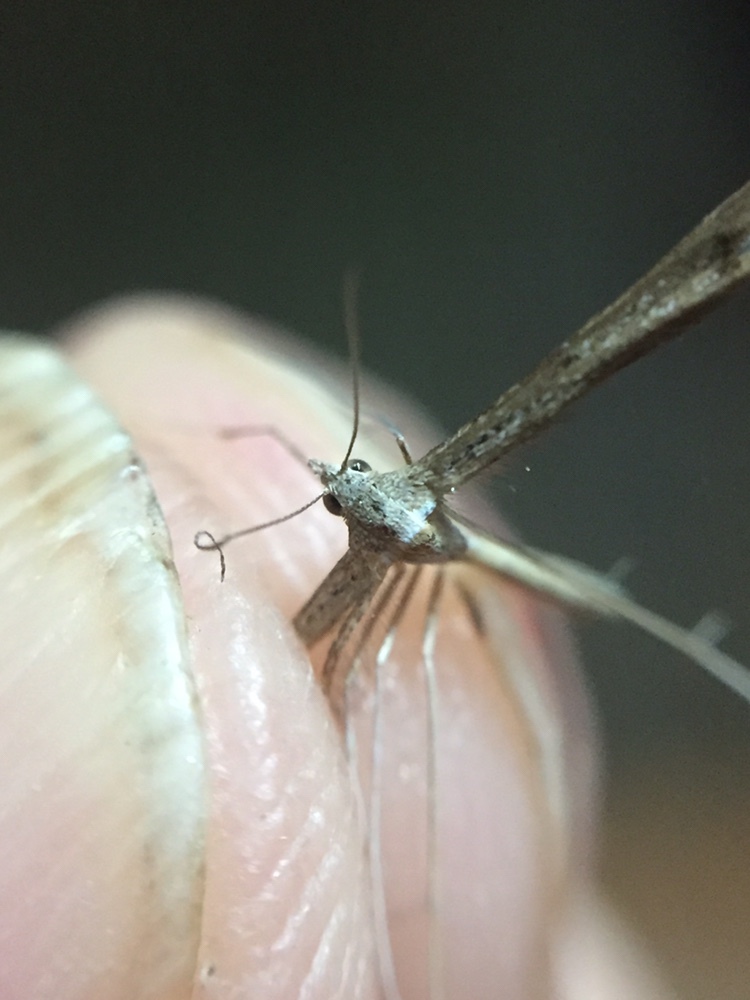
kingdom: Animalia
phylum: Arthropoda
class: Insecta
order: Lepidoptera
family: Pterophoridae
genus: Stenoptilia
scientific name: Stenoptilia zophodactylus
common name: Dowdy plume
